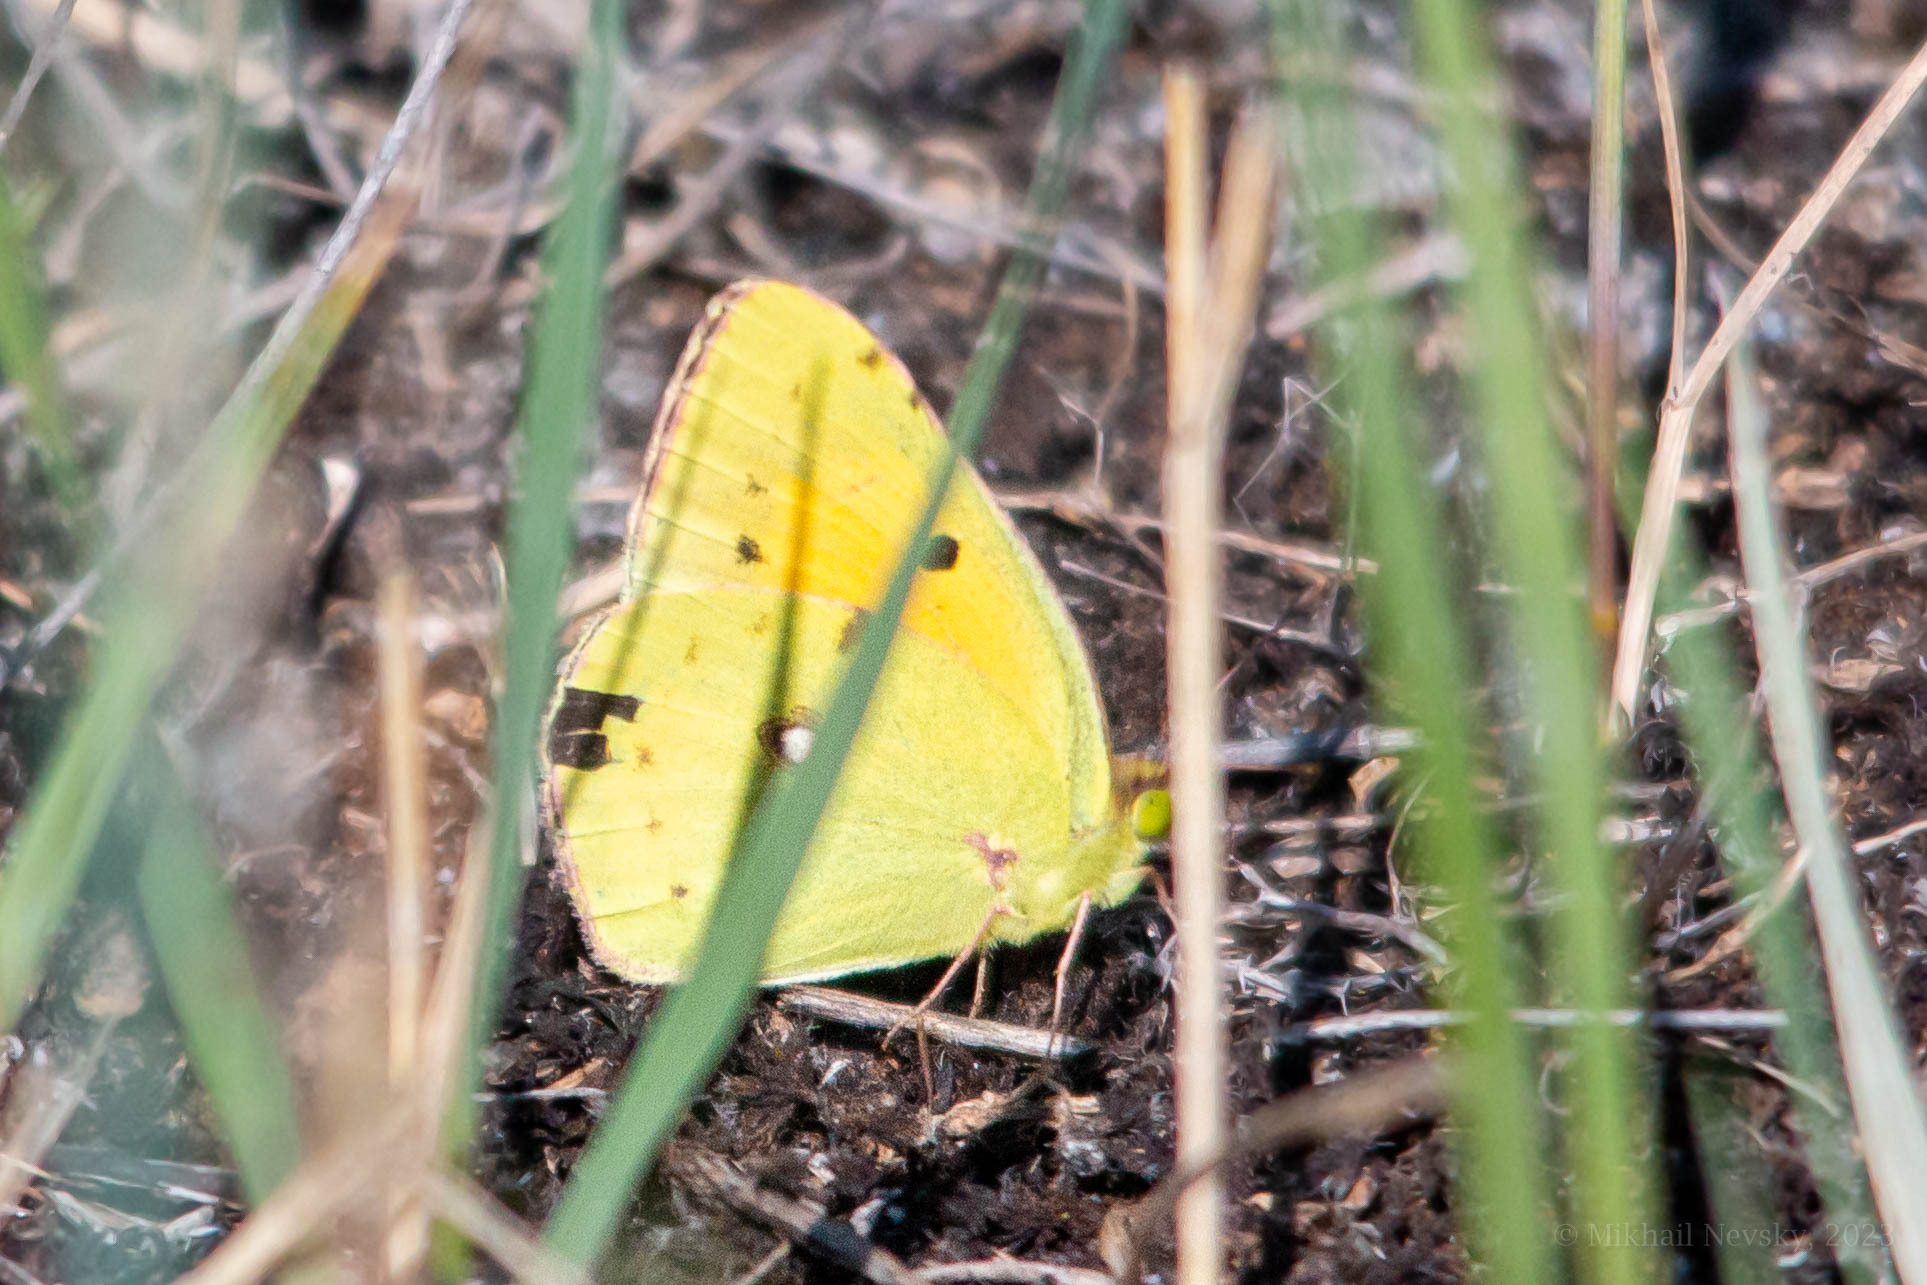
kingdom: Animalia
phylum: Arthropoda
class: Insecta
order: Lepidoptera
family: Pieridae
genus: Colias
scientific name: Colias croceus
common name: Clouded yellow
